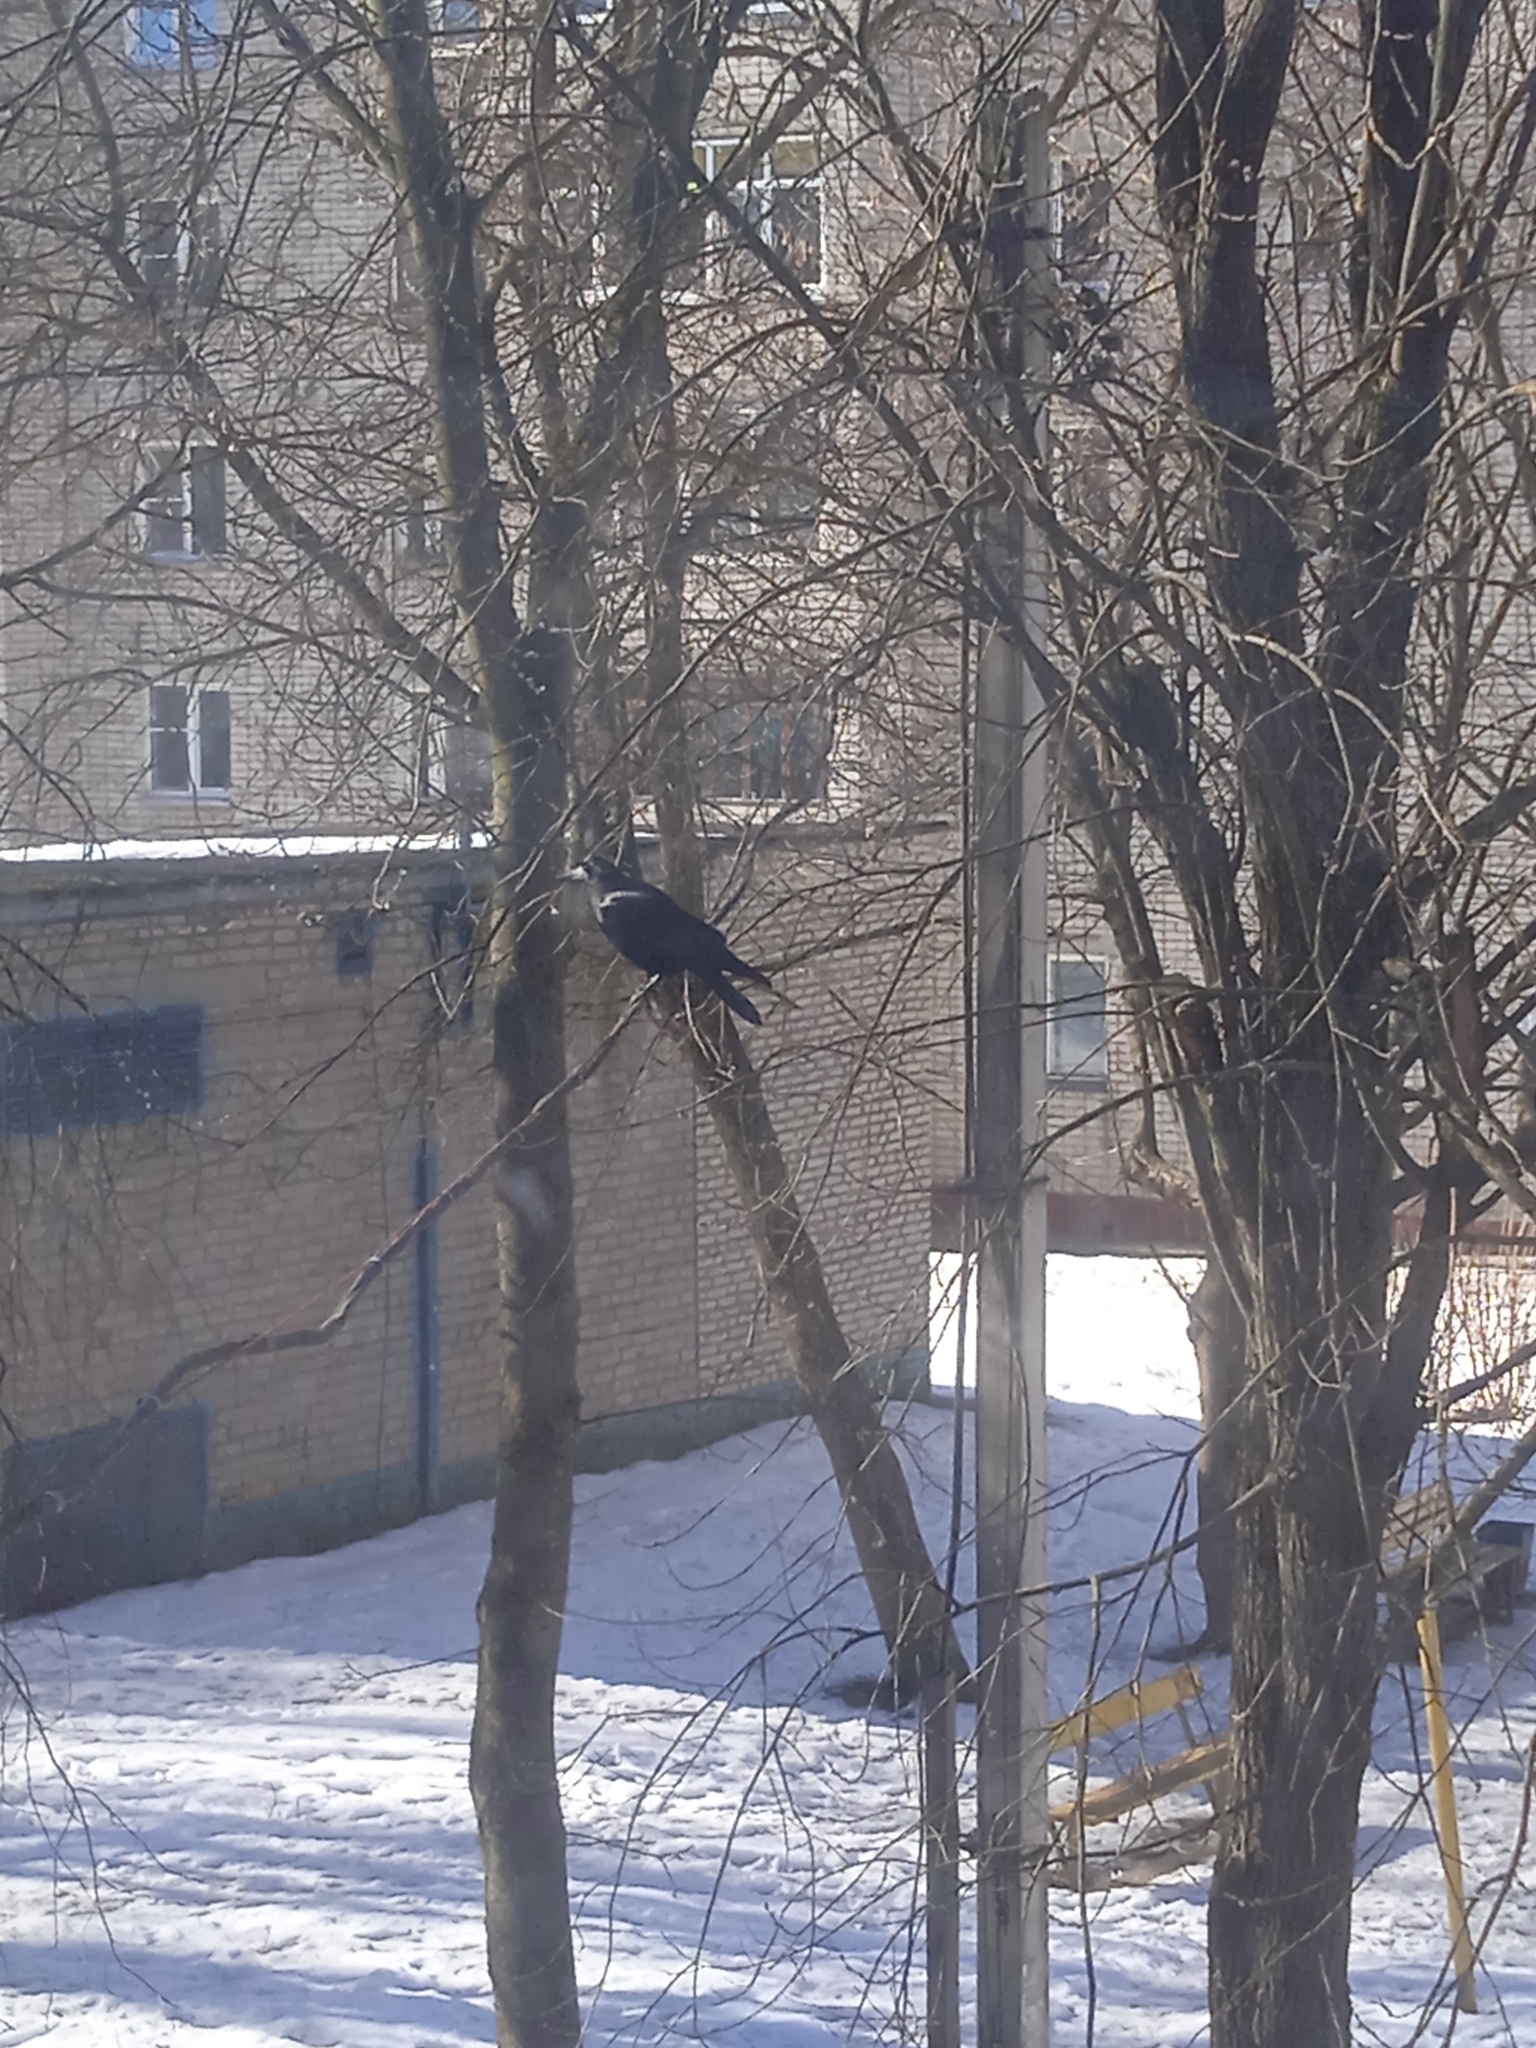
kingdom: Animalia
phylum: Chordata
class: Aves
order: Passeriformes
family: Corvidae
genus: Corvus
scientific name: Corvus frugilegus
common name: Rook
